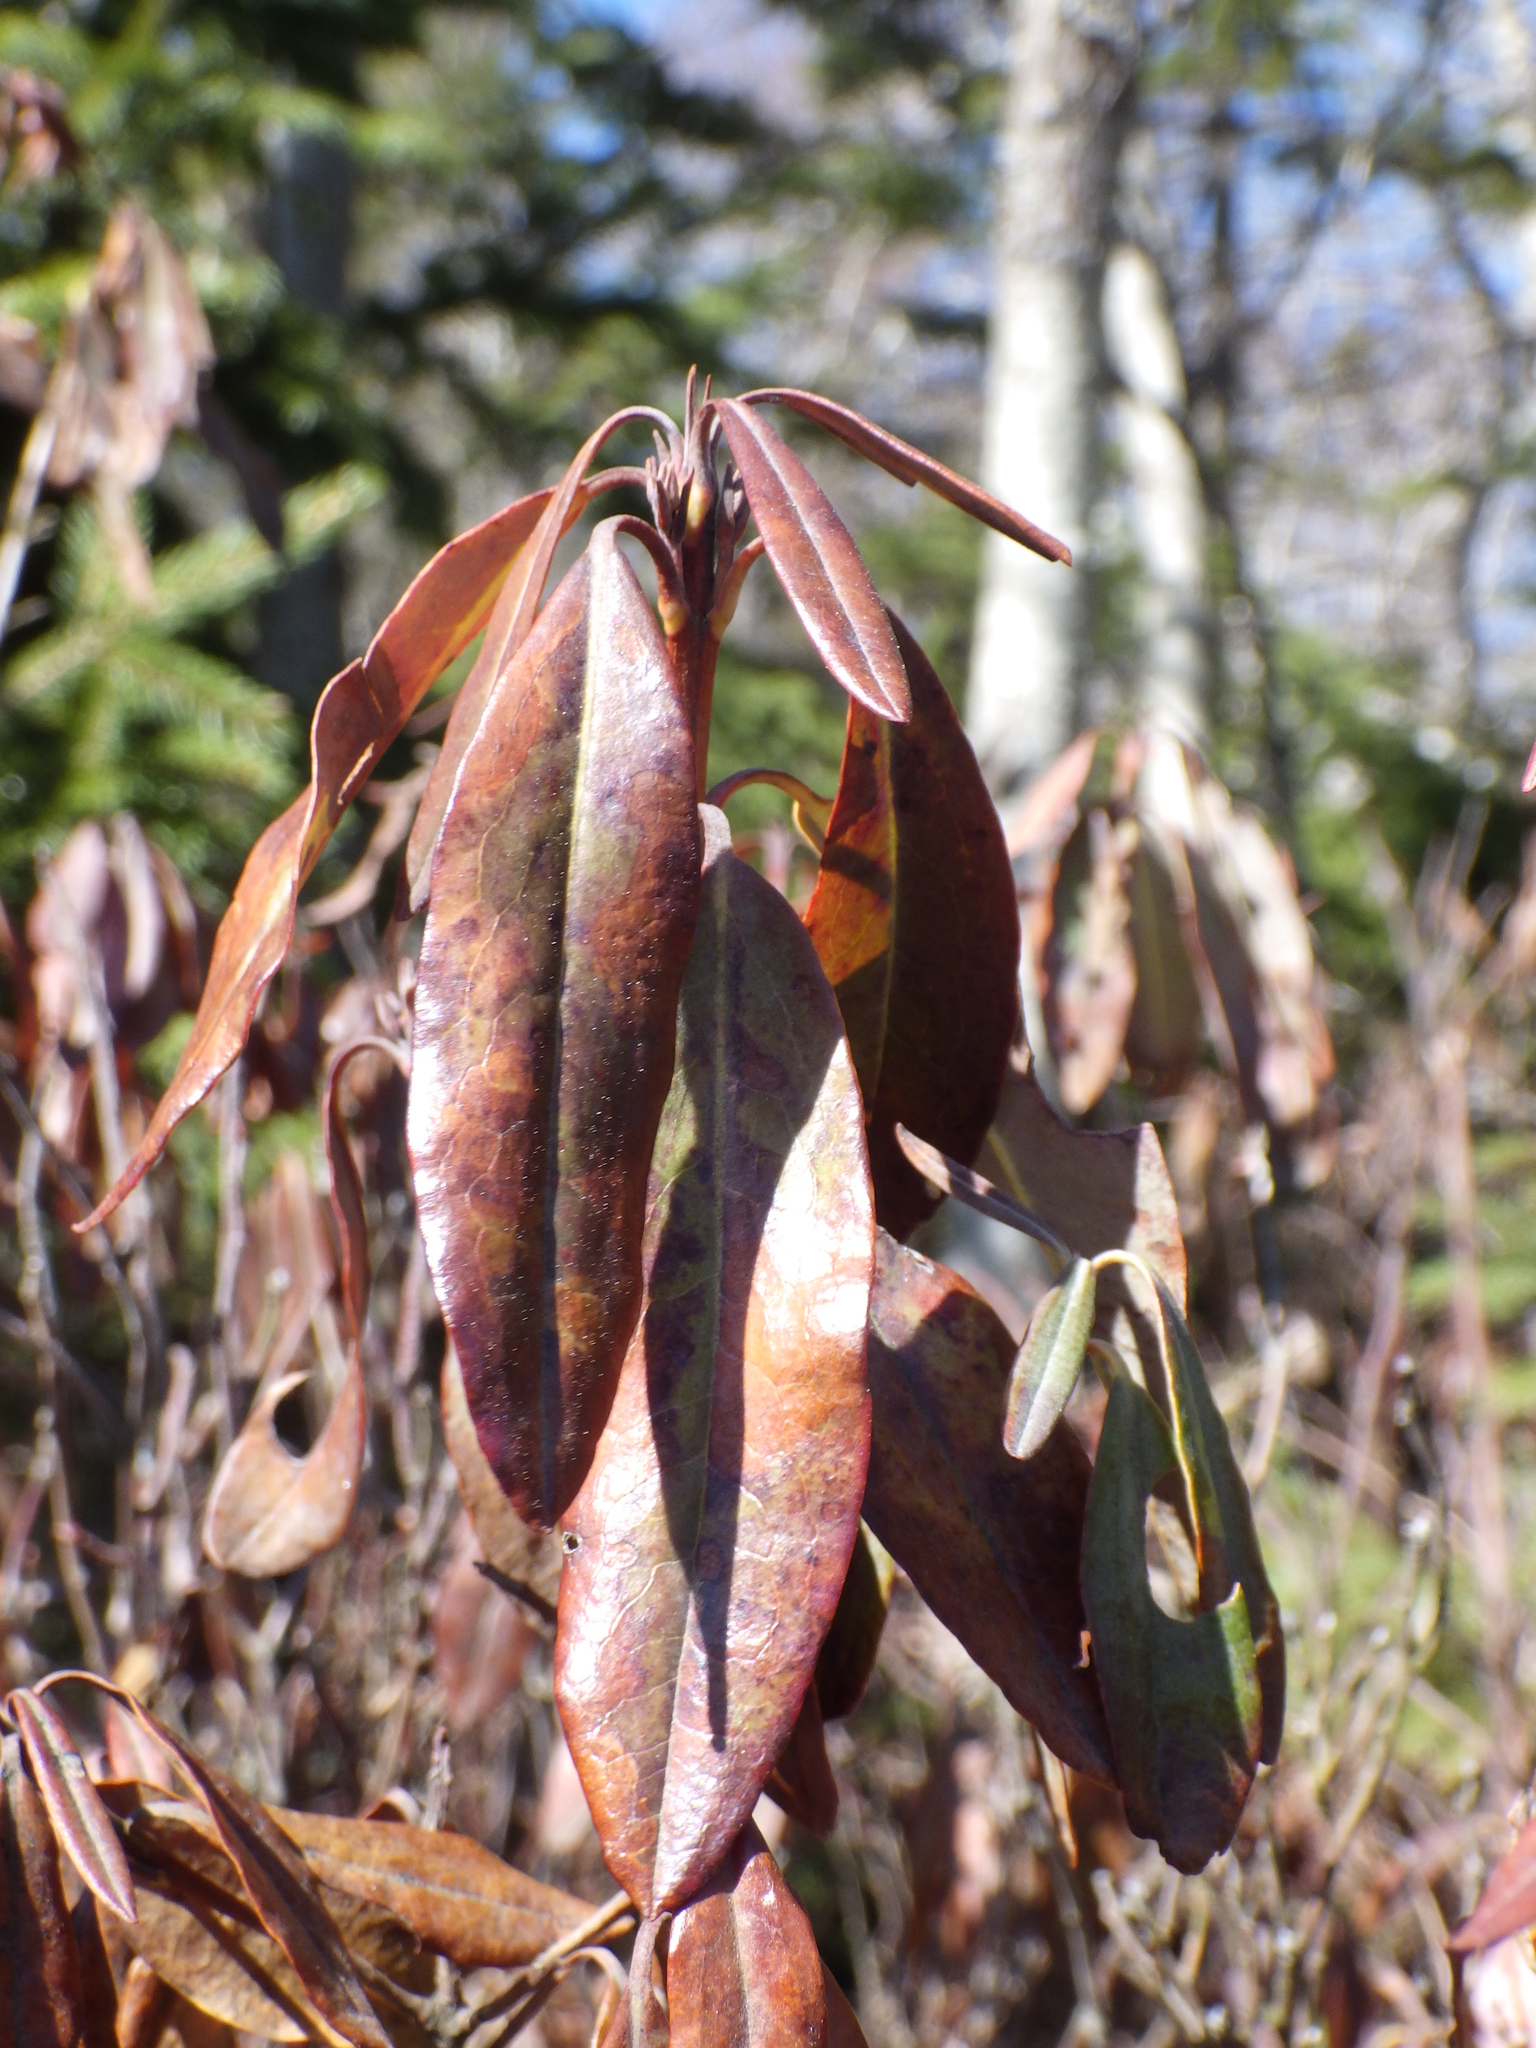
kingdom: Plantae
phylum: Tracheophyta
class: Magnoliopsida
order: Ericales
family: Ericaceae
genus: Kalmia
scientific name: Kalmia angustifolia
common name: Sheep-laurel
